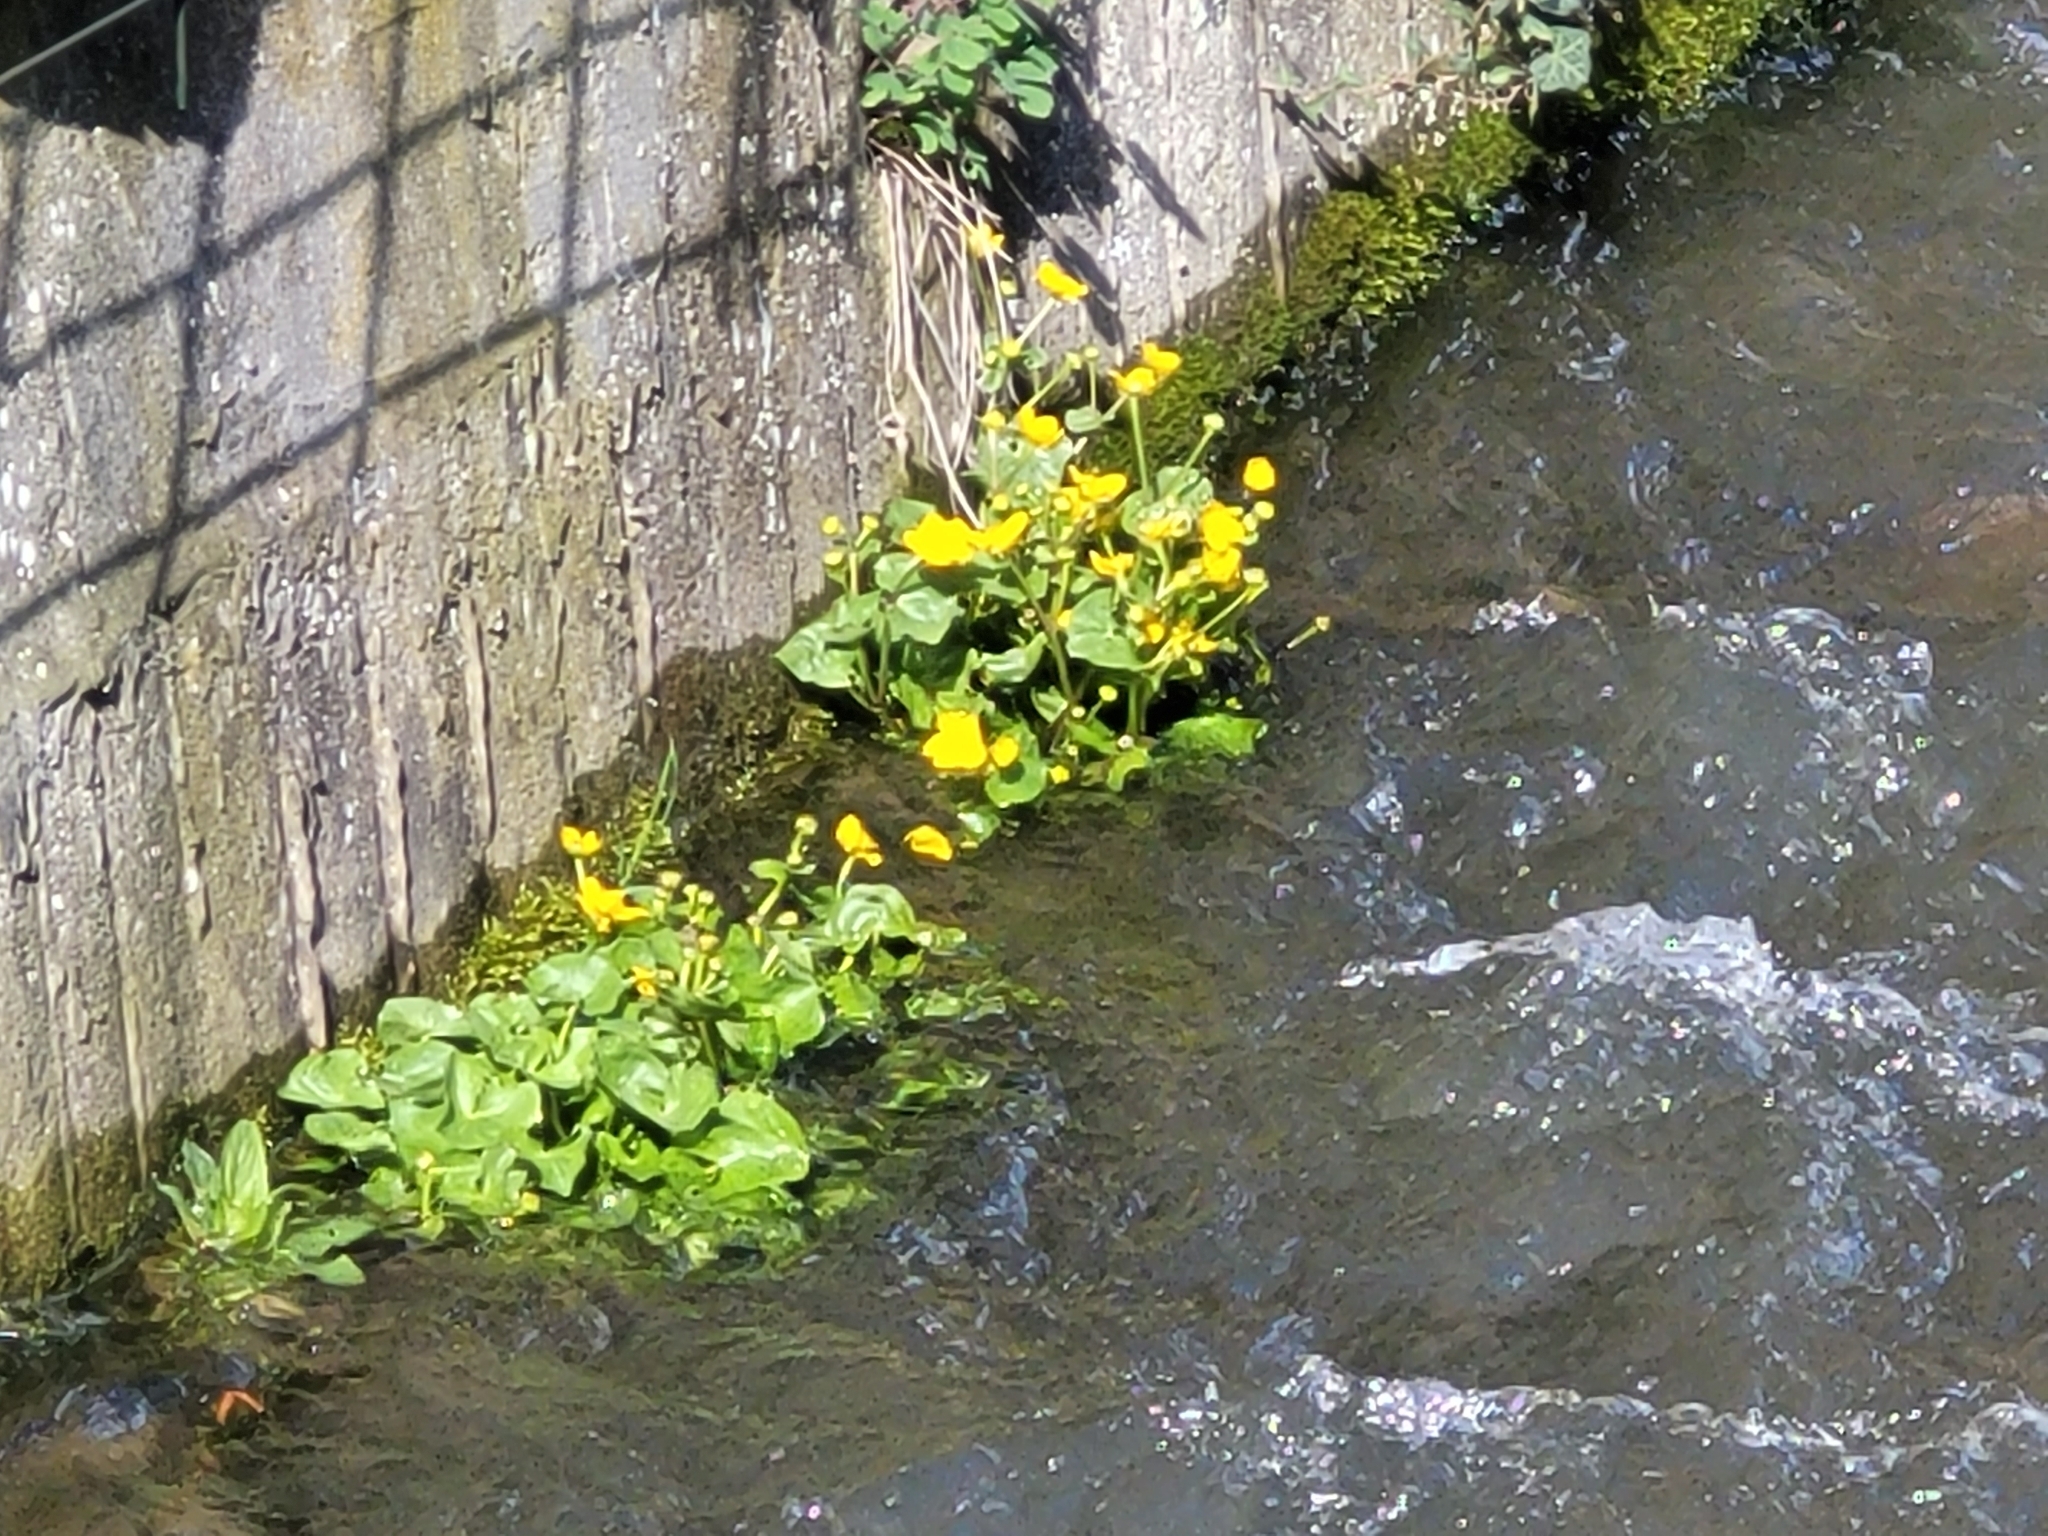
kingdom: Plantae
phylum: Tracheophyta
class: Magnoliopsida
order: Ranunculales
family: Ranunculaceae
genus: Caltha
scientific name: Caltha palustris
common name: Marsh marigold
